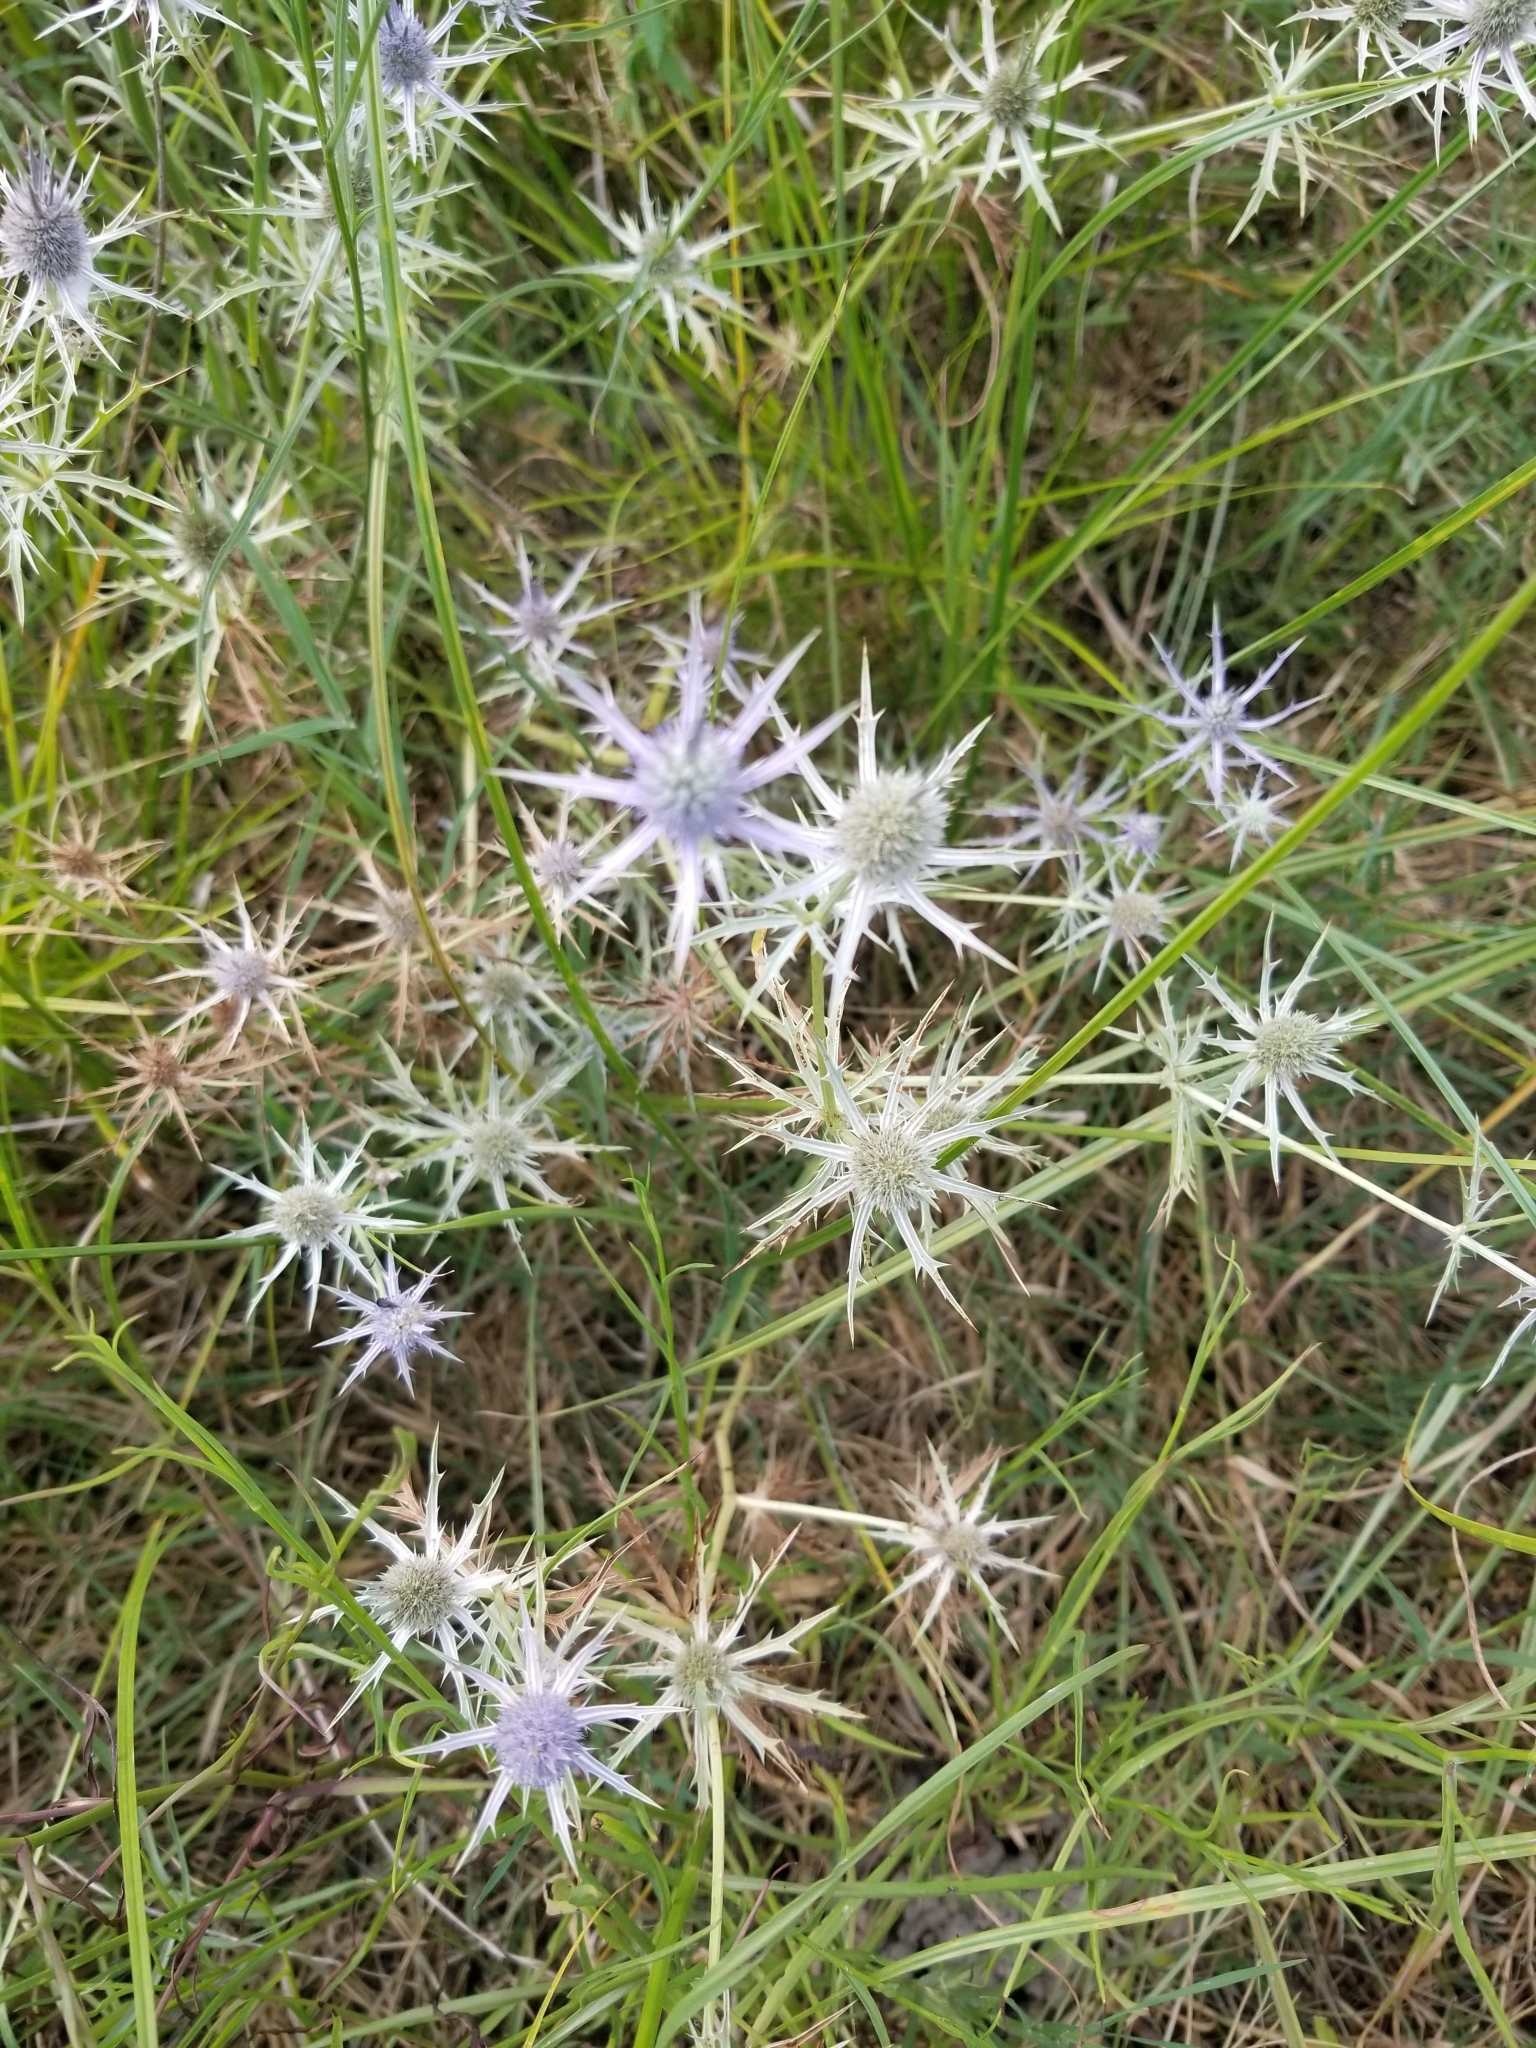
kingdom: Plantae
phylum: Tracheophyta
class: Magnoliopsida
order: Apiales
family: Apiaceae
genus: Eryngium
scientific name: Eryngium hookeri
